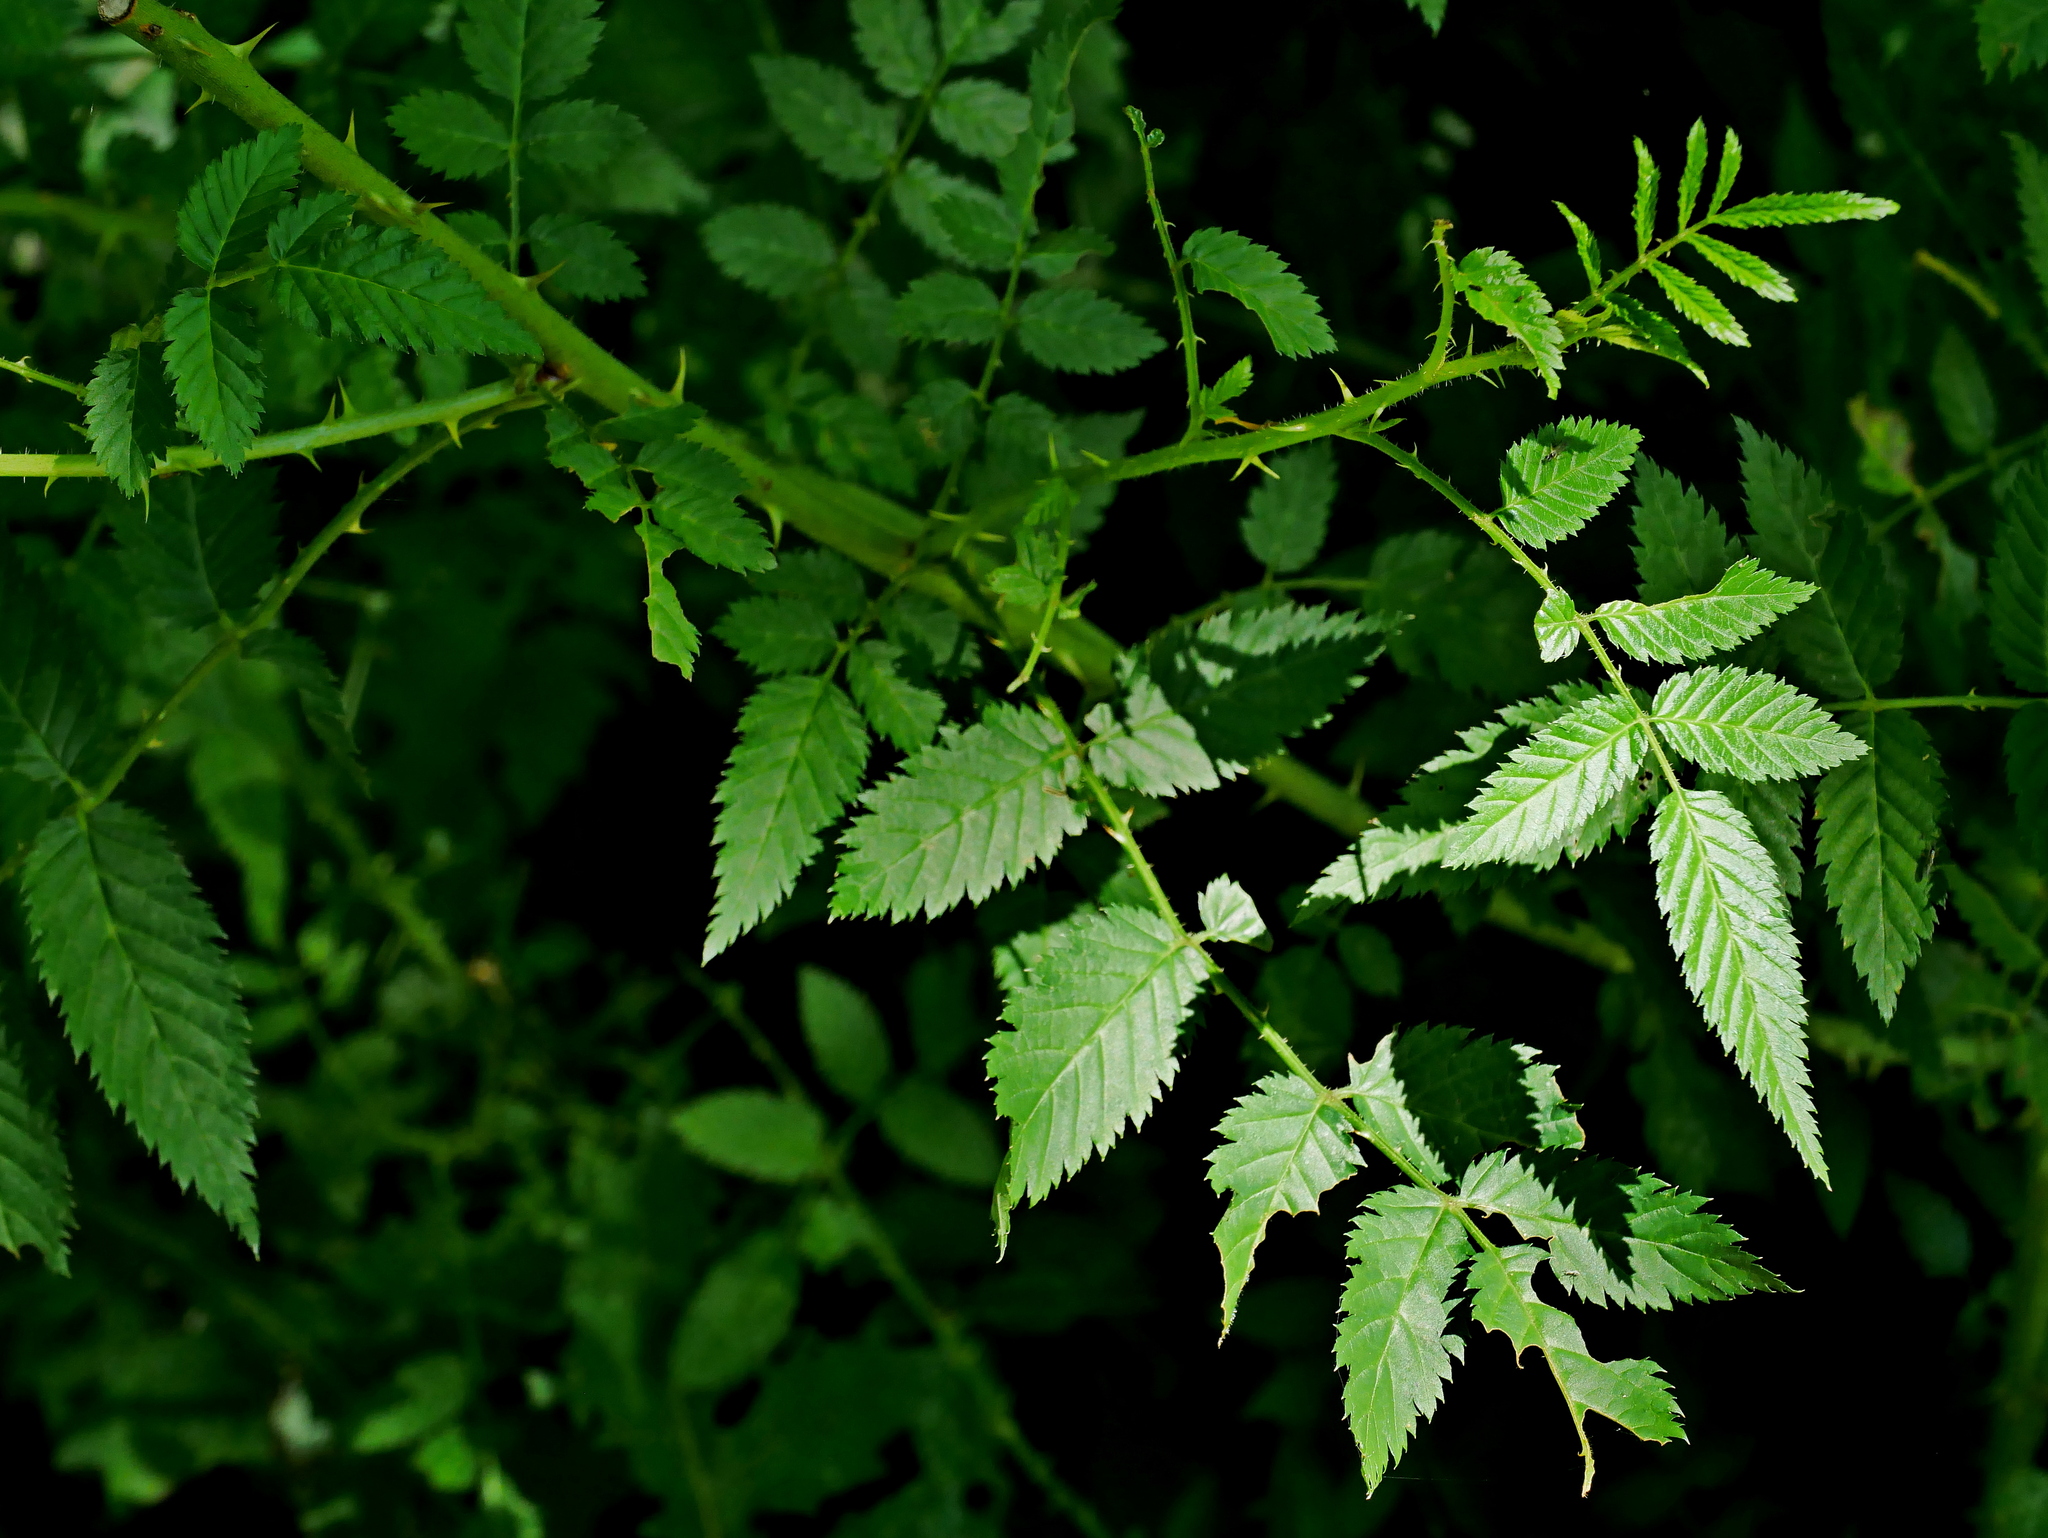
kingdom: Plantae
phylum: Tracheophyta
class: Magnoliopsida
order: Rosales
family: Rosaceae
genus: Rubus
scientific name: Rubus croceacanthus
